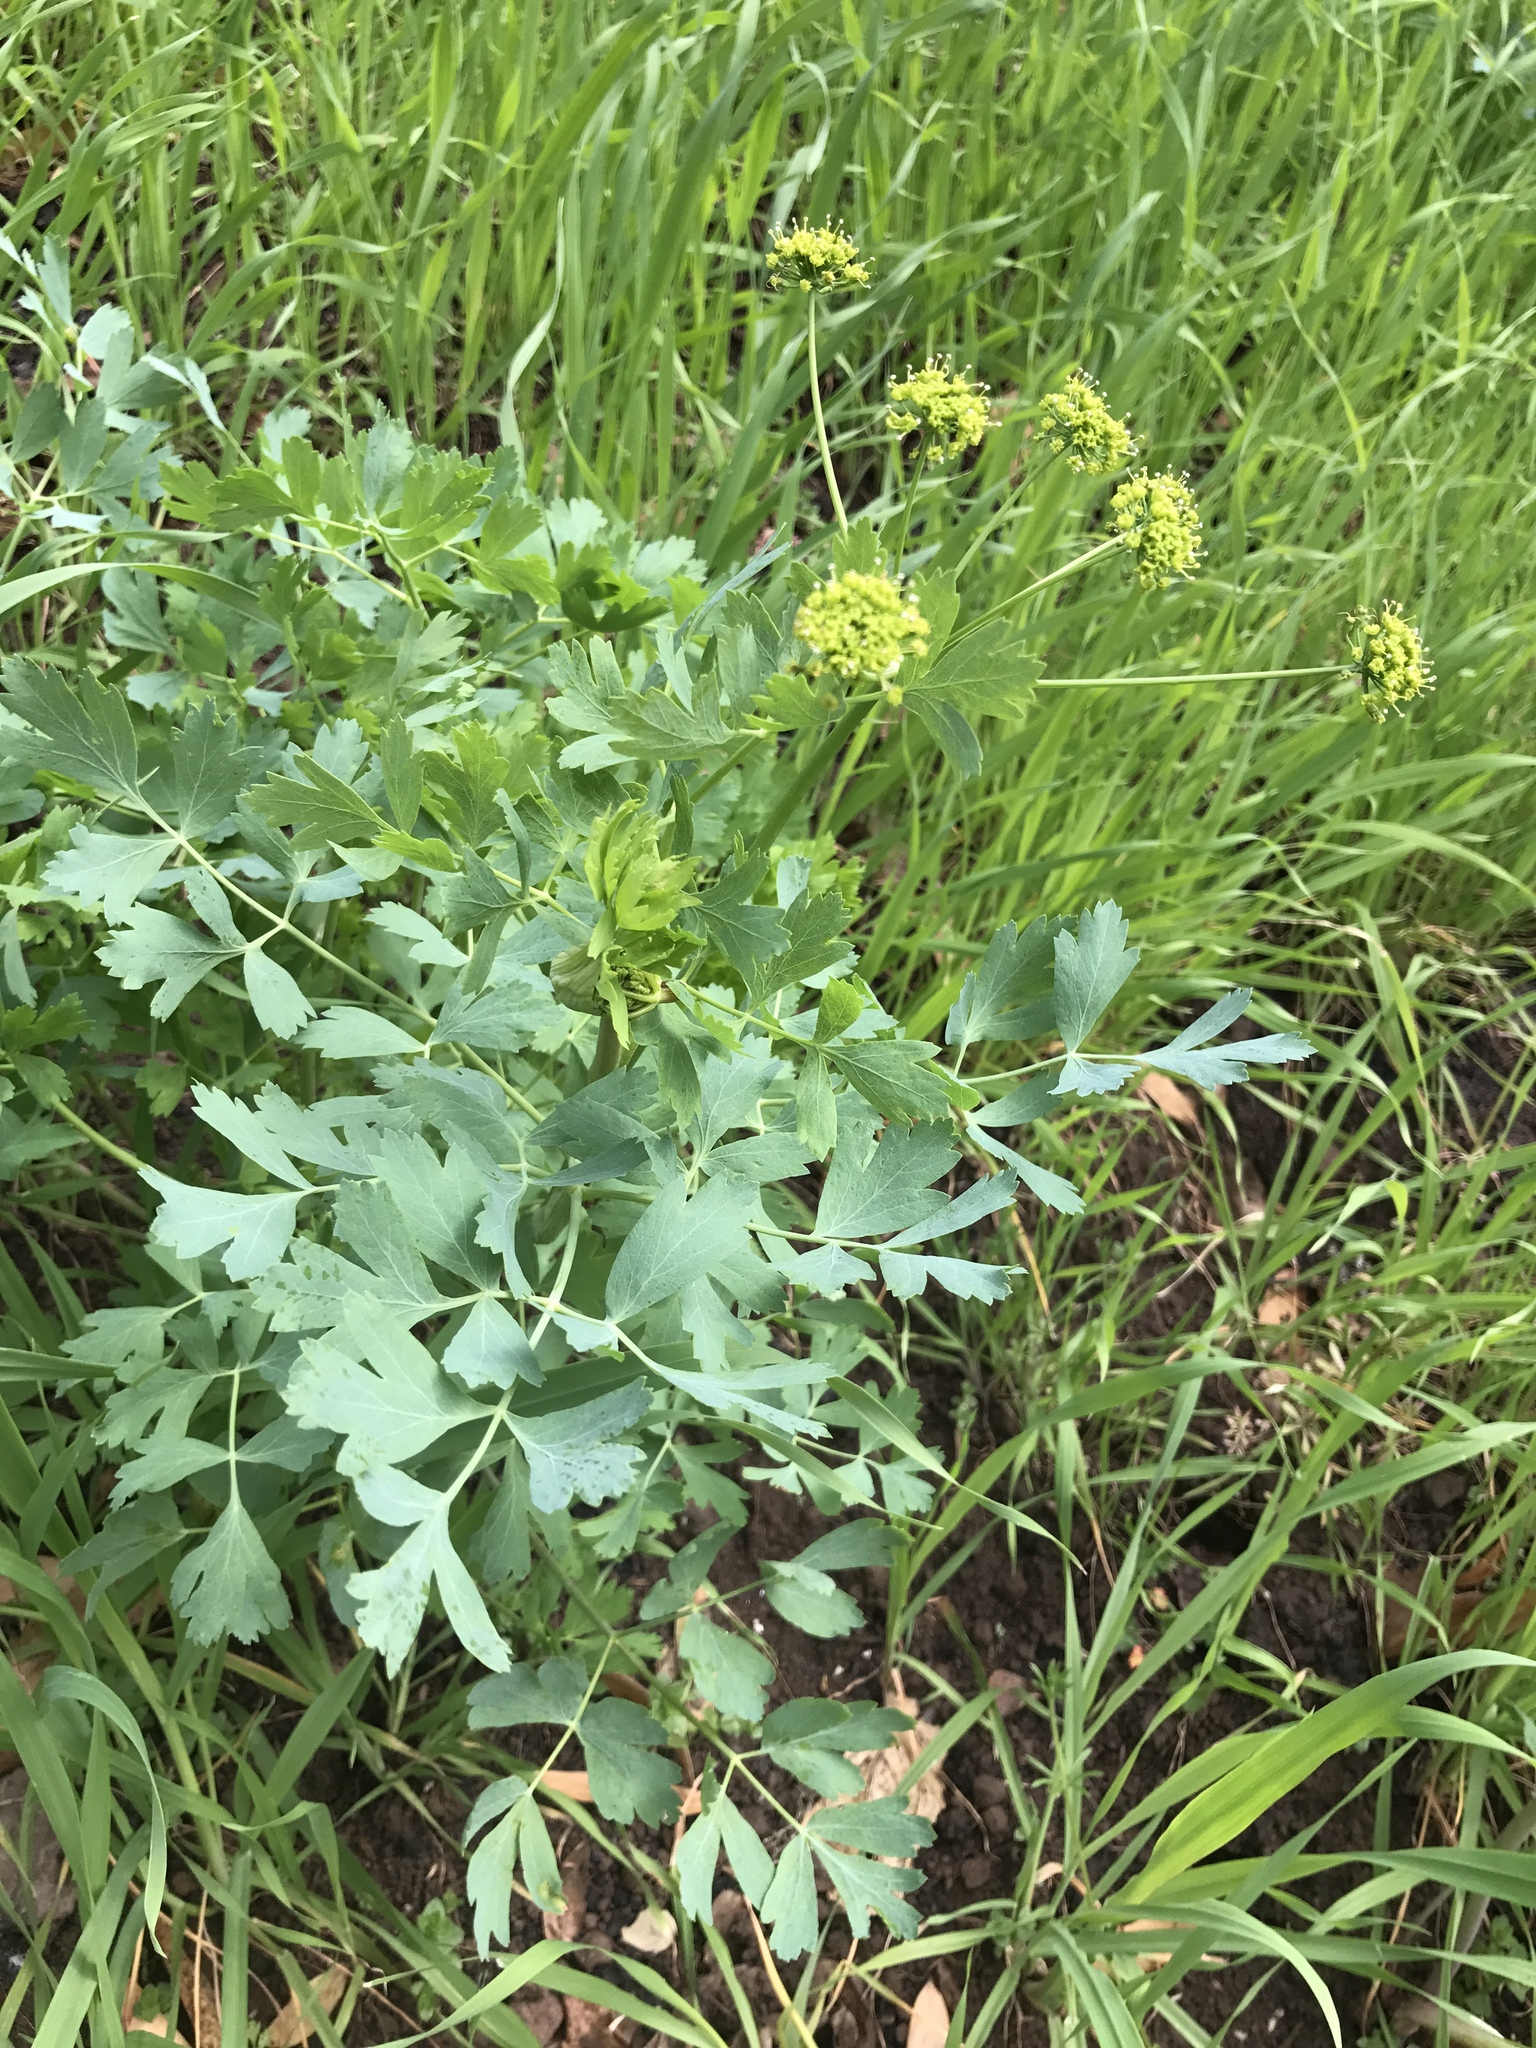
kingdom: Plantae
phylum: Tracheophyta
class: Magnoliopsida
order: Apiales
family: Apiaceae
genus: Lomatium
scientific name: Lomatium californicum
